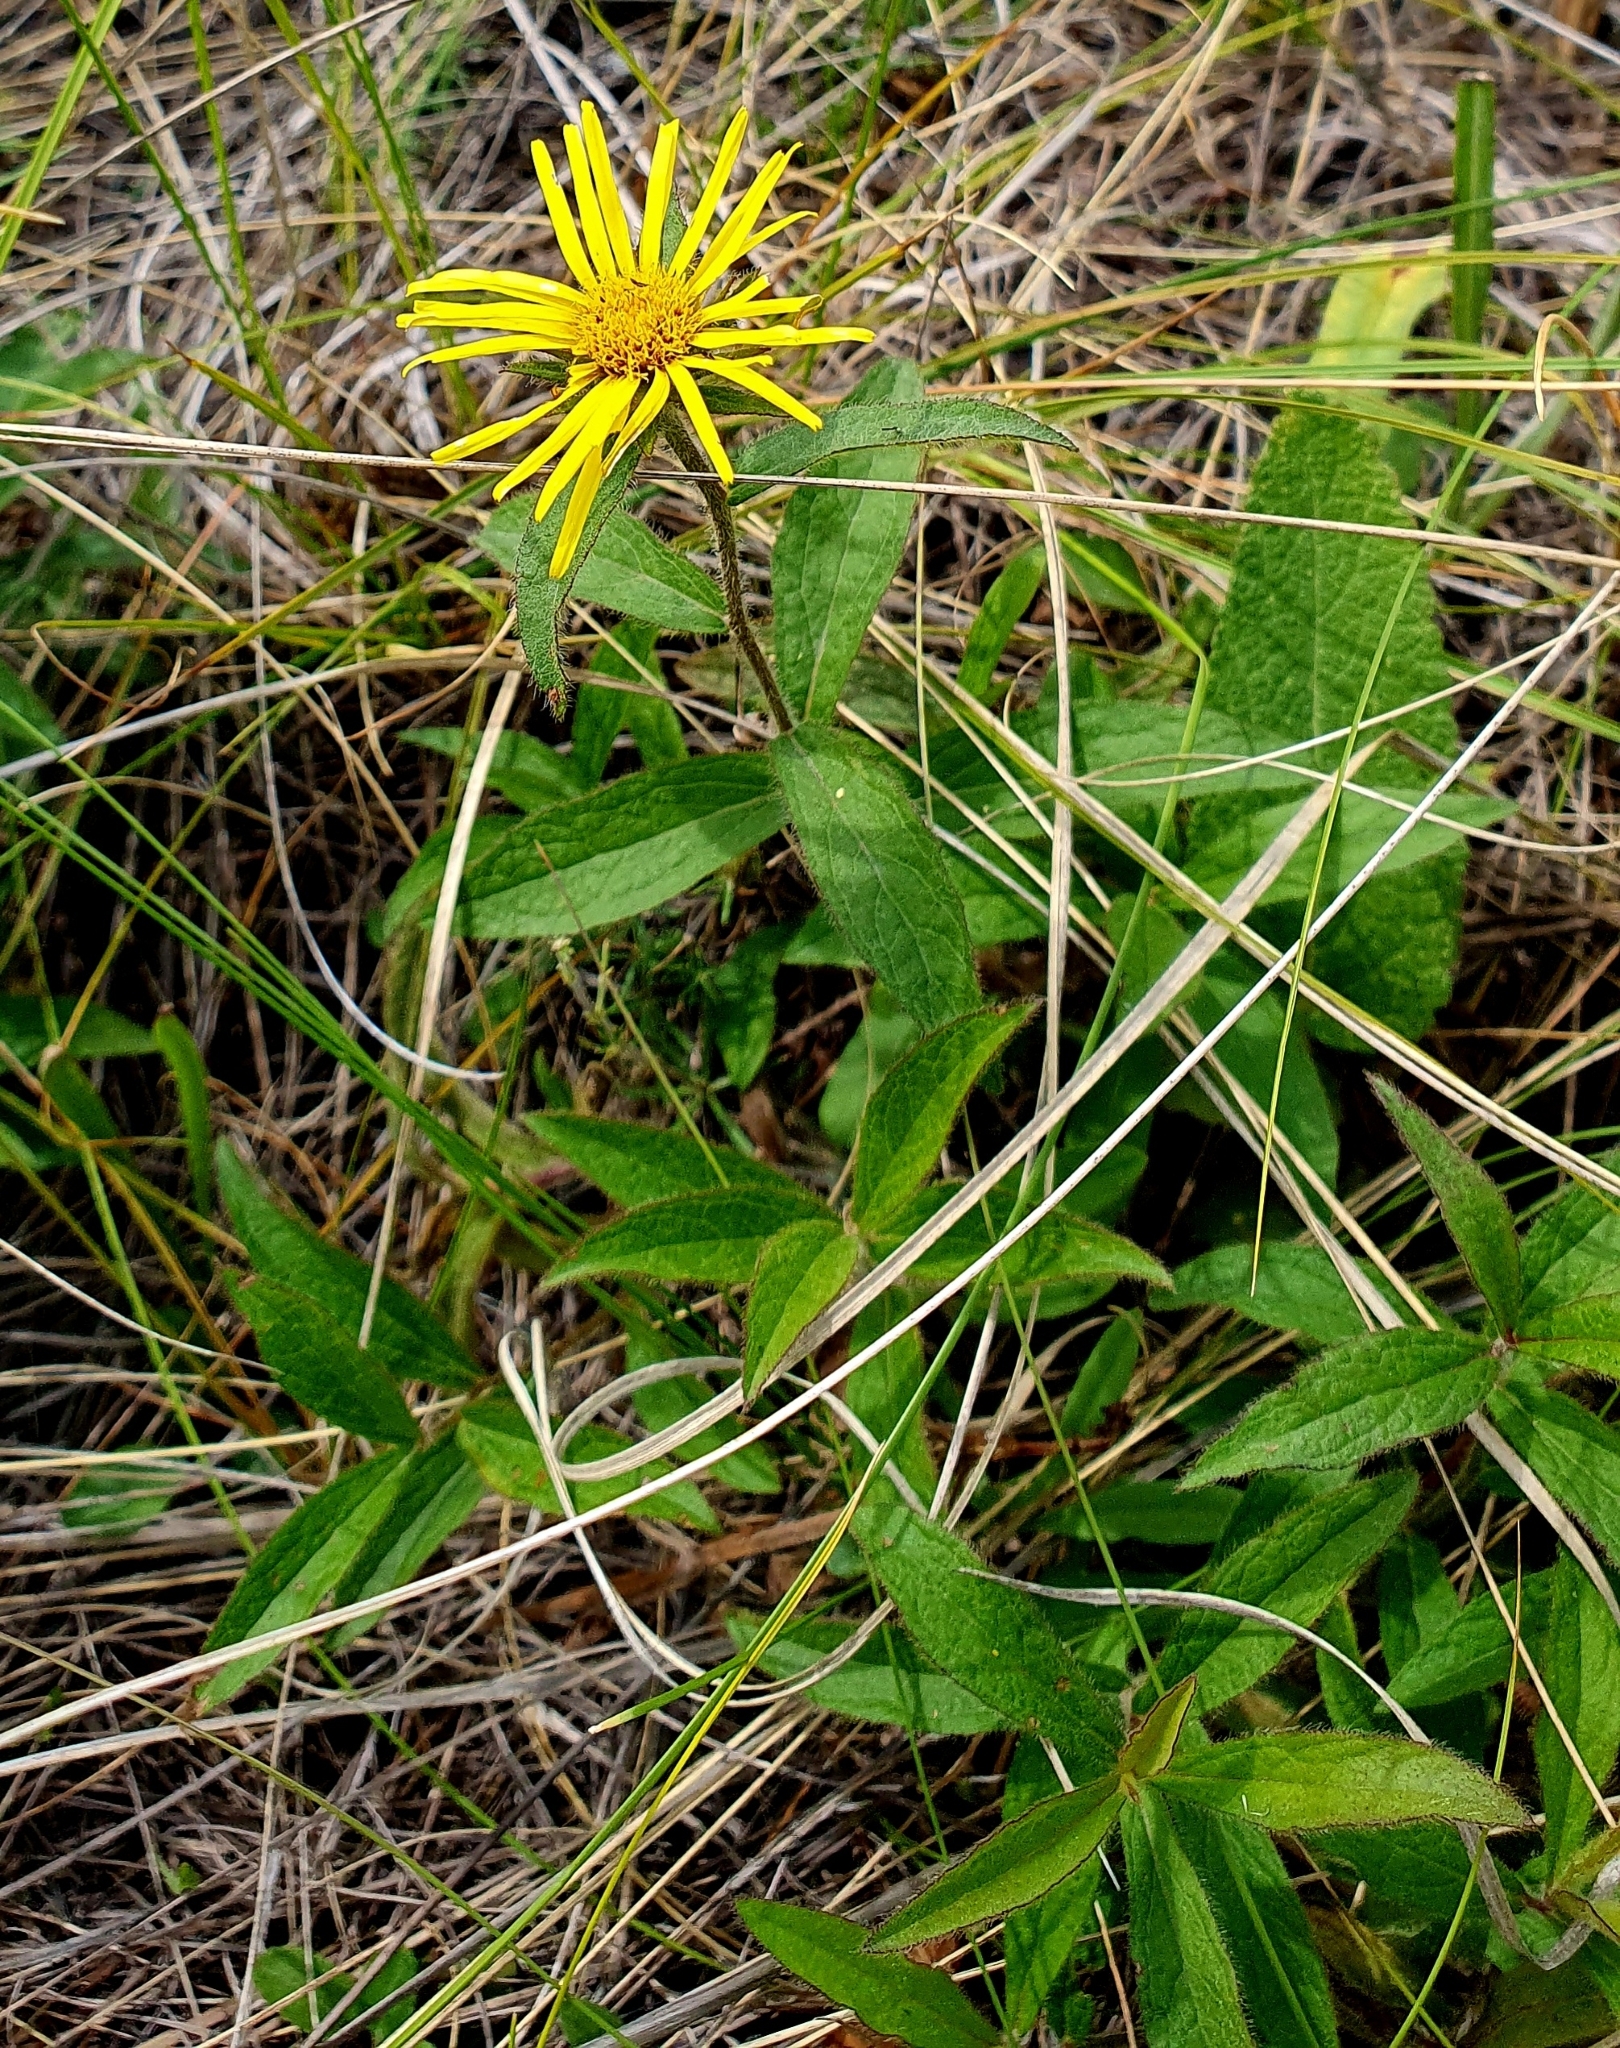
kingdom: Plantae
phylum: Tracheophyta
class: Magnoliopsida
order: Asterales
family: Asteraceae
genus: Pentanema
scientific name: Pentanema hirtum
